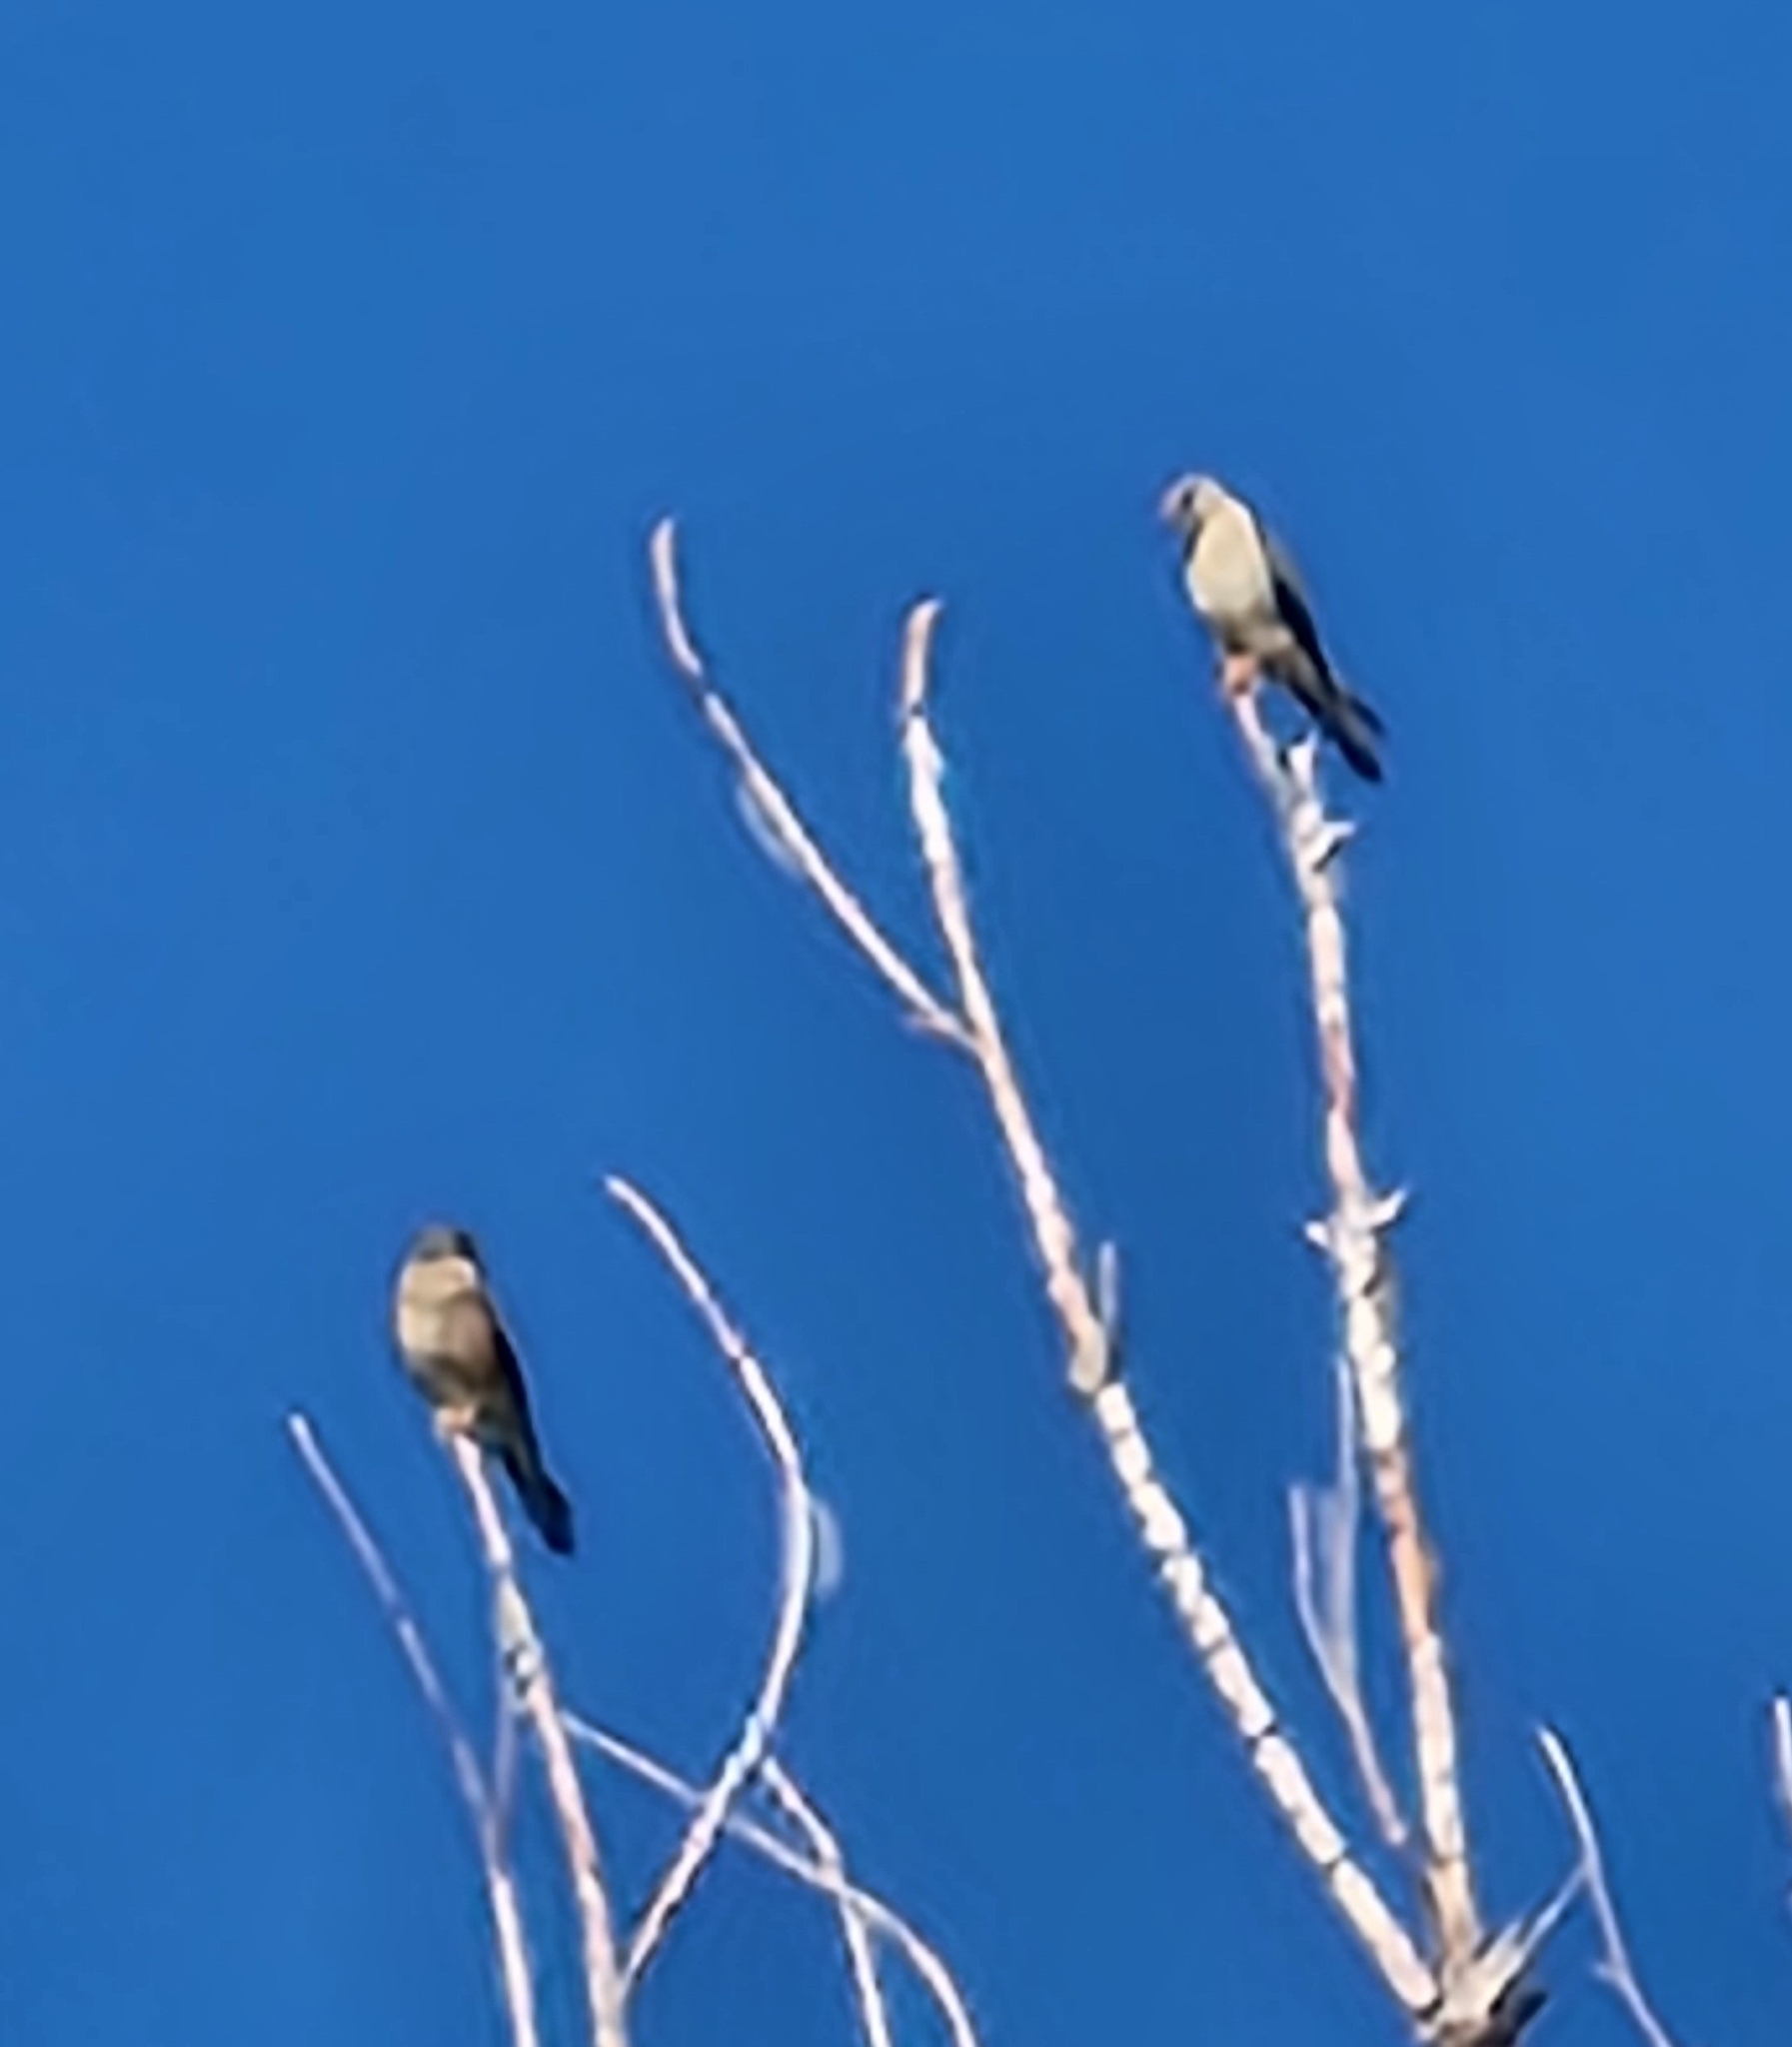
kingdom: Animalia
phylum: Chordata
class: Aves
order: Falconiformes
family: Falconidae
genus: Falco
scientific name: Falco sparverius
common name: American kestrel
